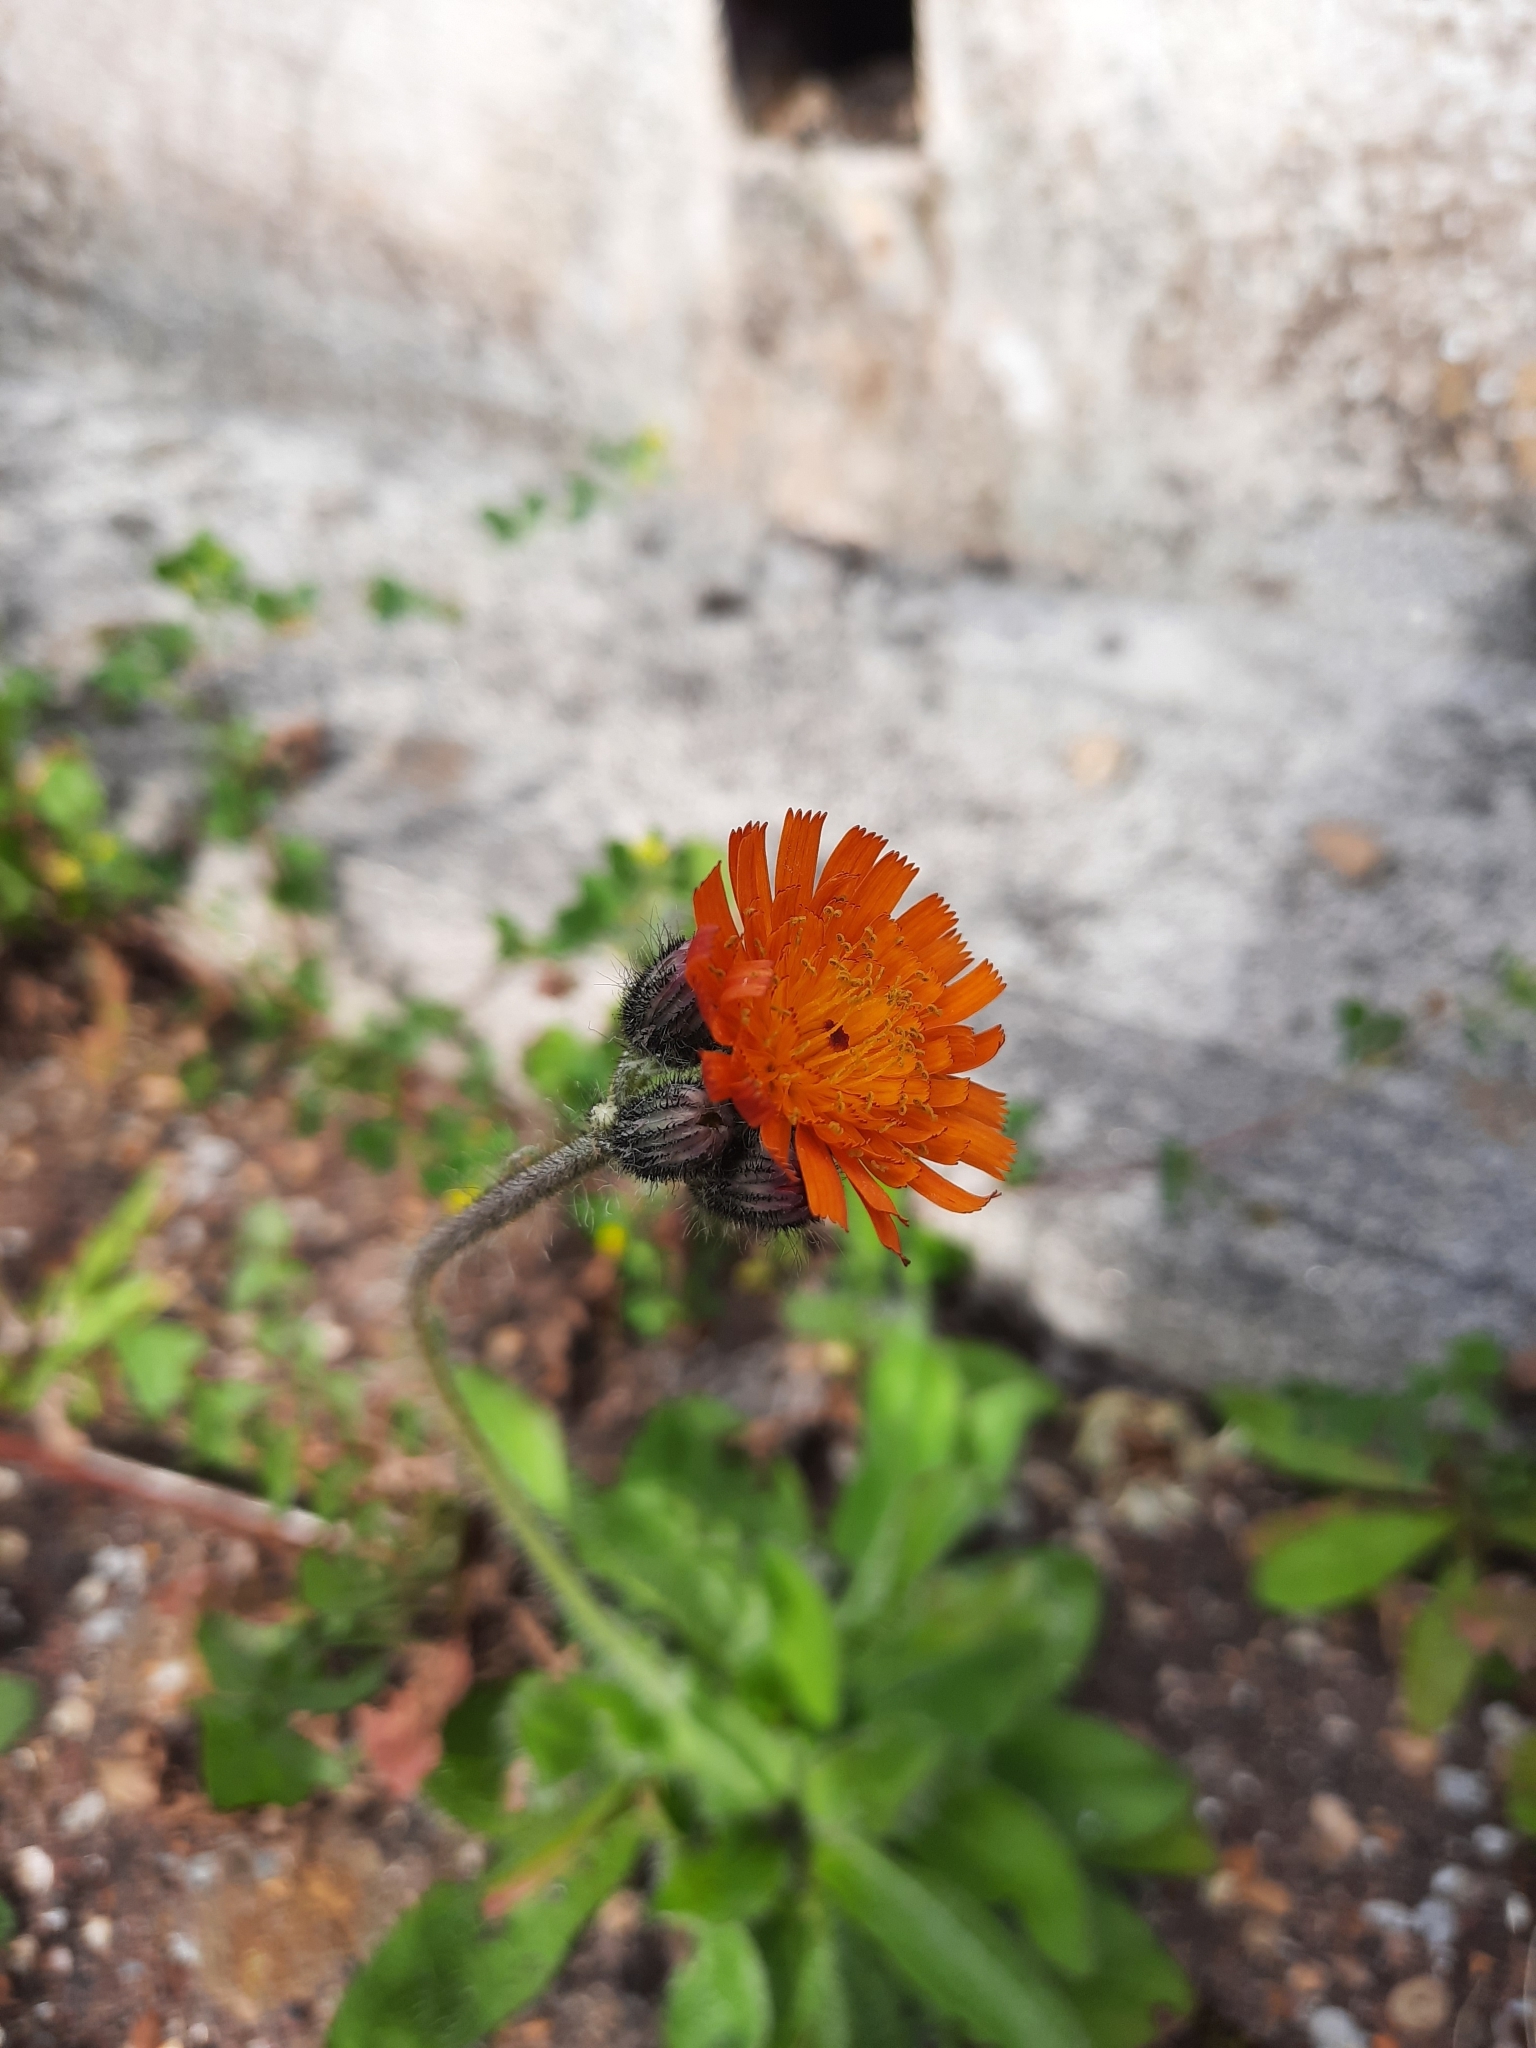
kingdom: Plantae
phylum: Tracheophyta
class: Magnoliopsida
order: Asterales
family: Asteraceae
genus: Pilosella
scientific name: Pilosella aurantiaca
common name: Fox-and-cubs
